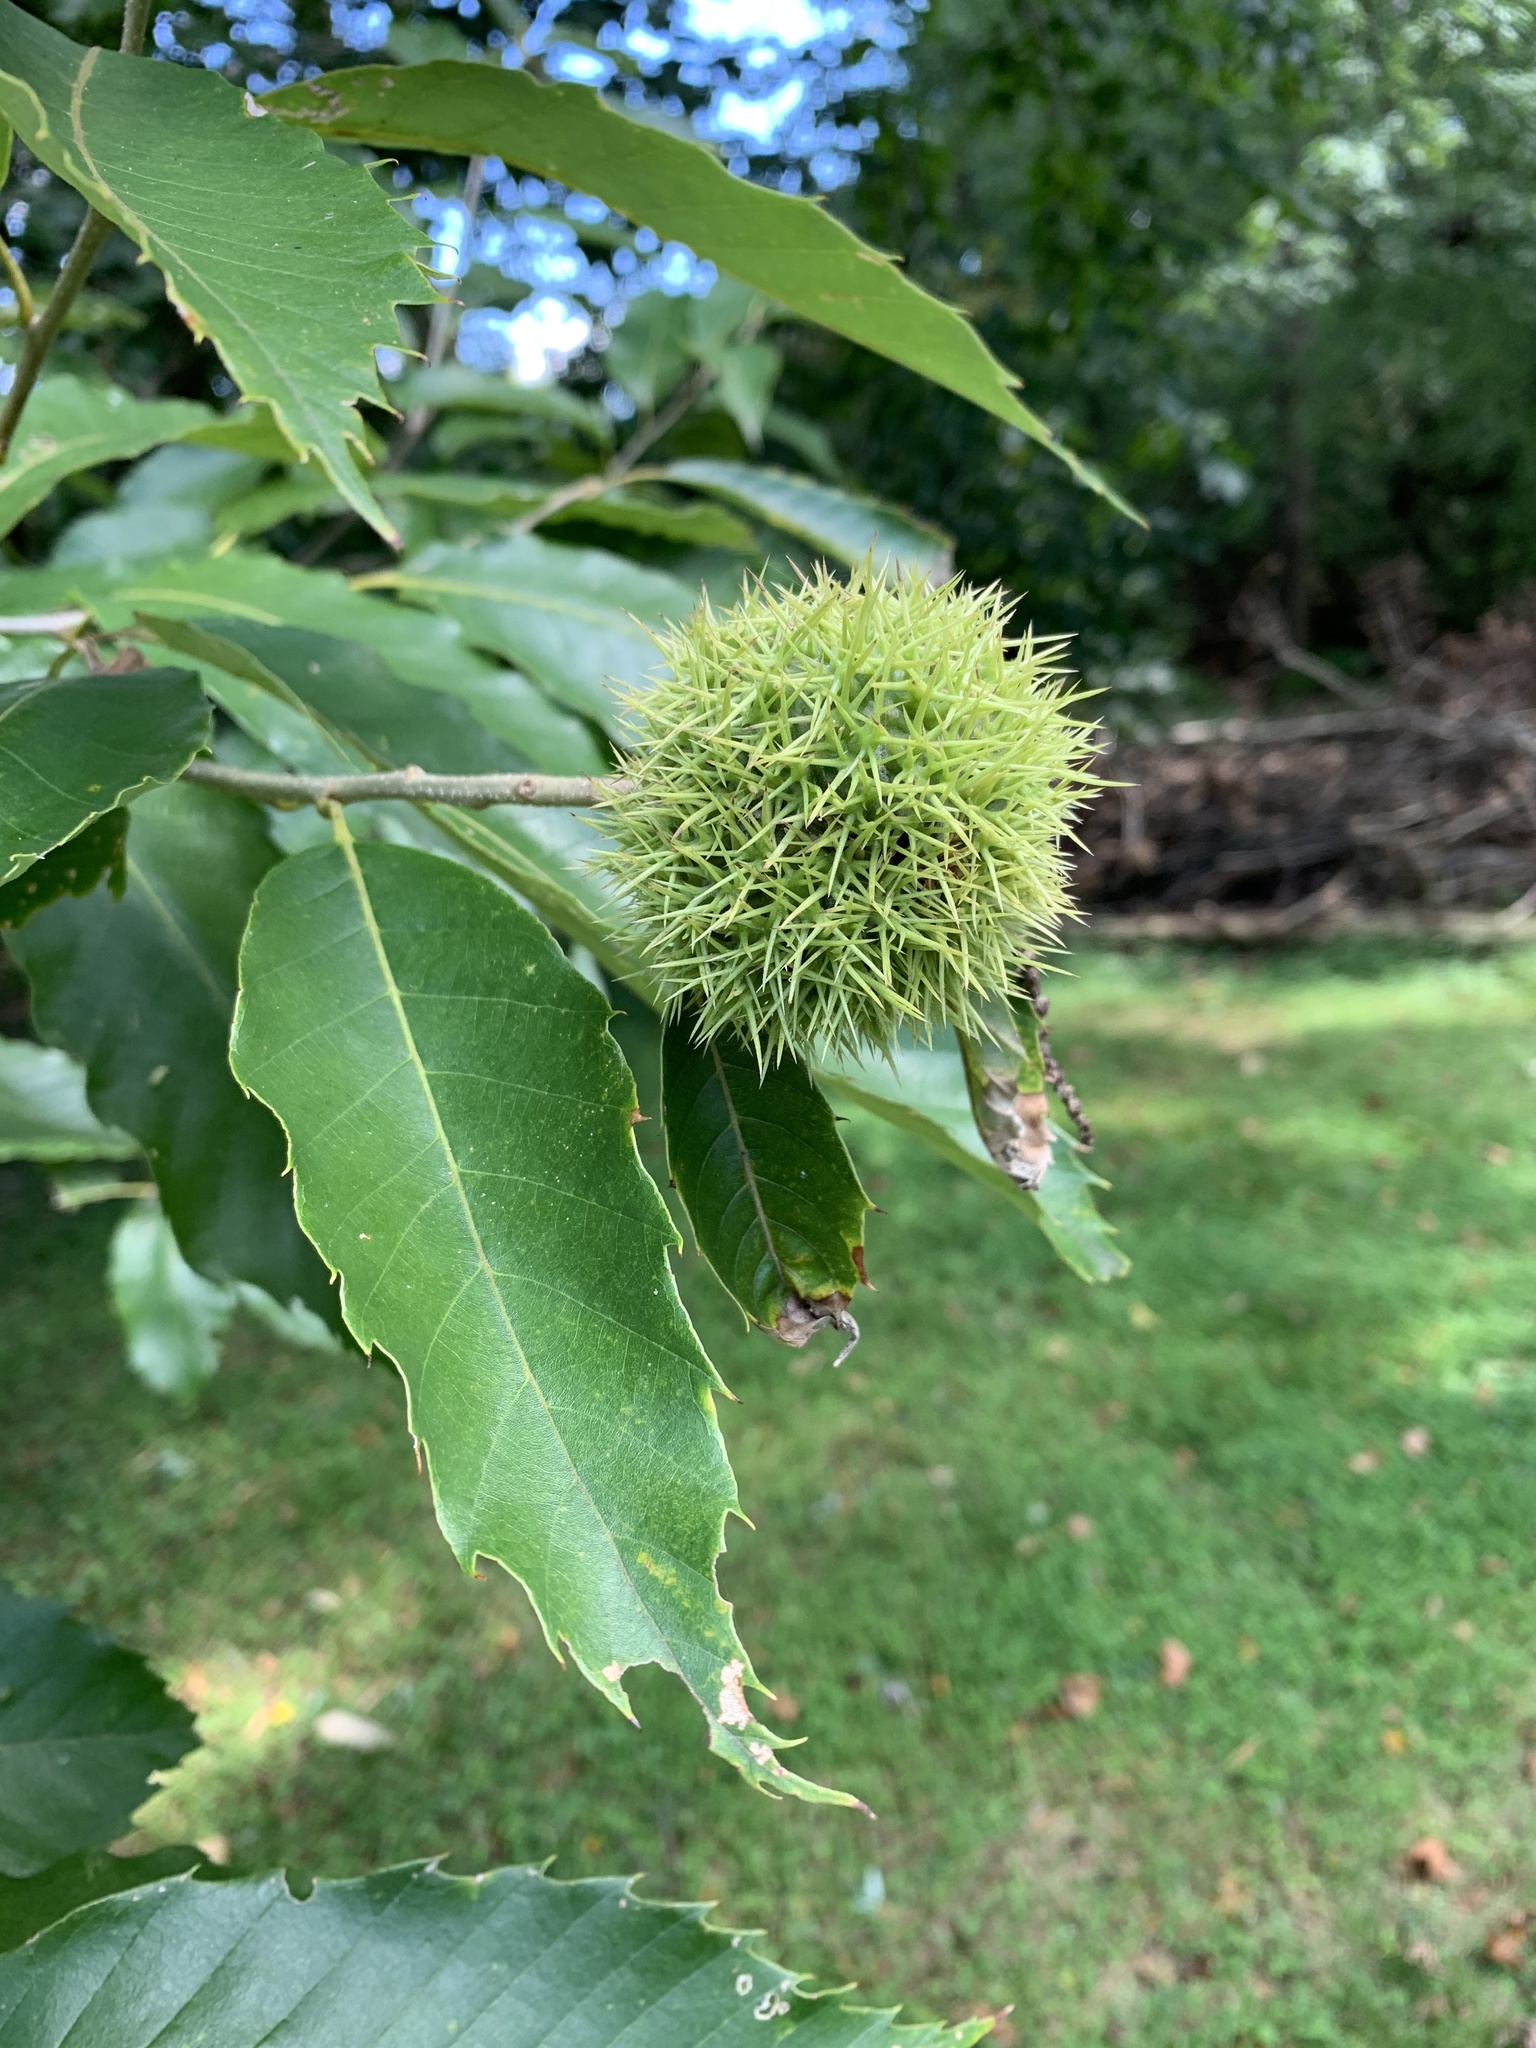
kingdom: Plantae
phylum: Tracheophyta
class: Magnoliopsida
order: Fagales
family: Fagaceae
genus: Castanea
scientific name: Castanea mollissima
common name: Chinese chestnut
